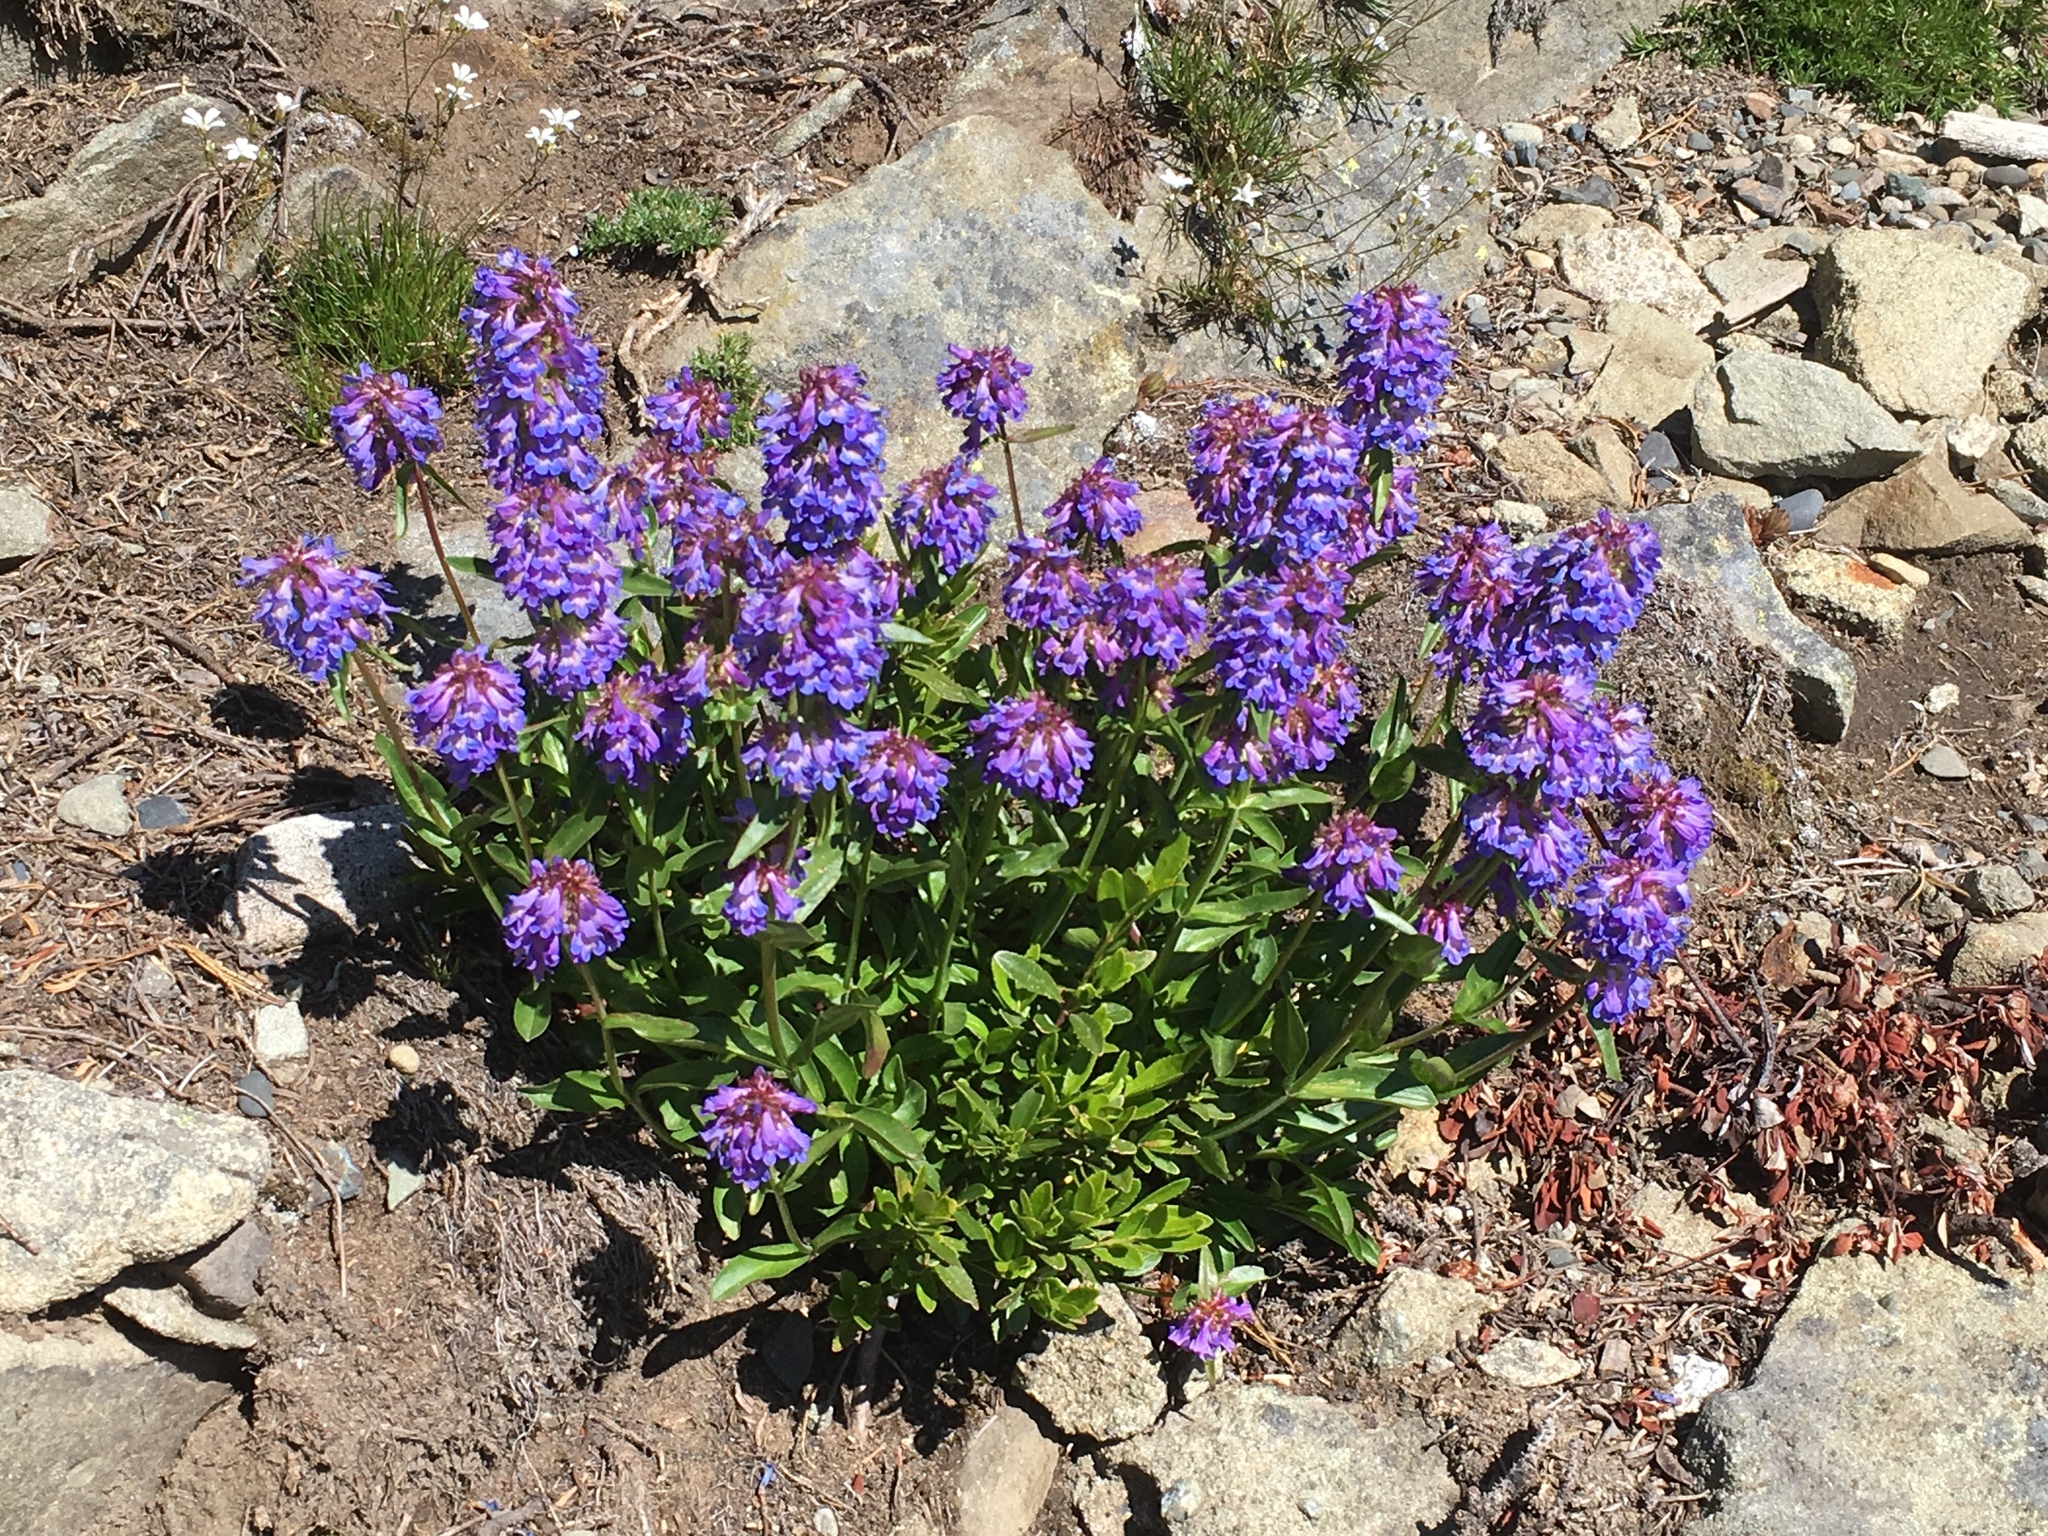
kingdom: Plantae
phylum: Tracheophyta
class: Magnoliopsida
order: Lamiales
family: Plantaginaceae
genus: Penstemon
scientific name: Penstemon procerus
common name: Small-flower penstemon
